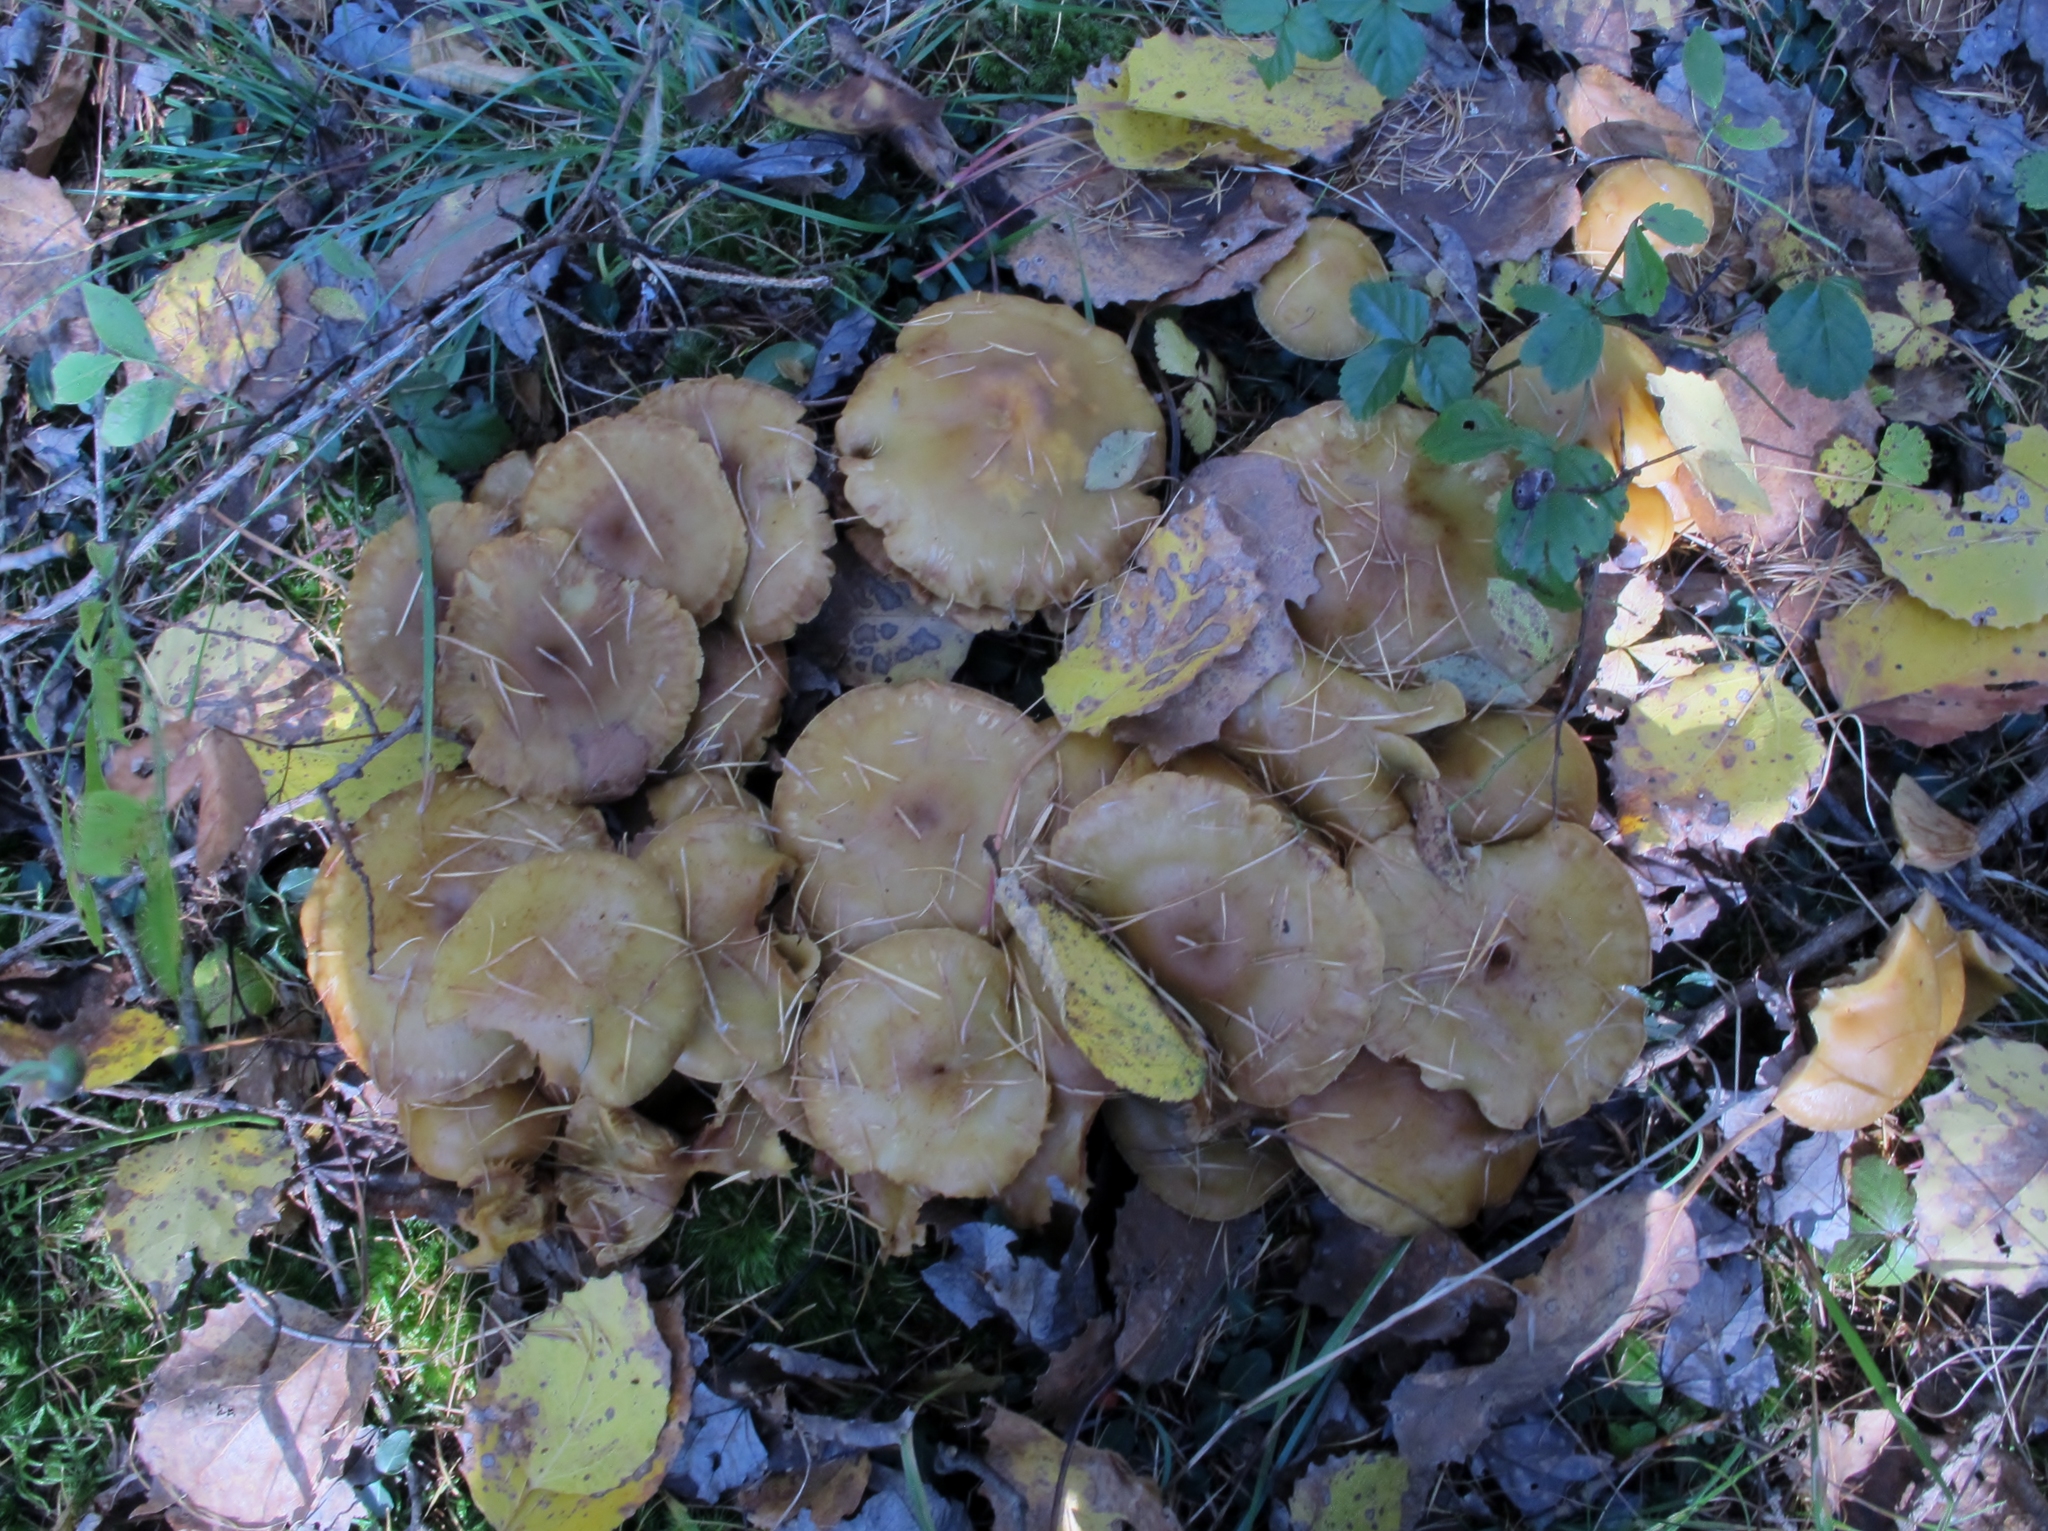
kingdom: Fungi
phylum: Basidiomycota
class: Agaricomycetes
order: Agaricales
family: Hymenogastraceae
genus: Flammula
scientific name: Flammula alnicola
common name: Alder scalycap
